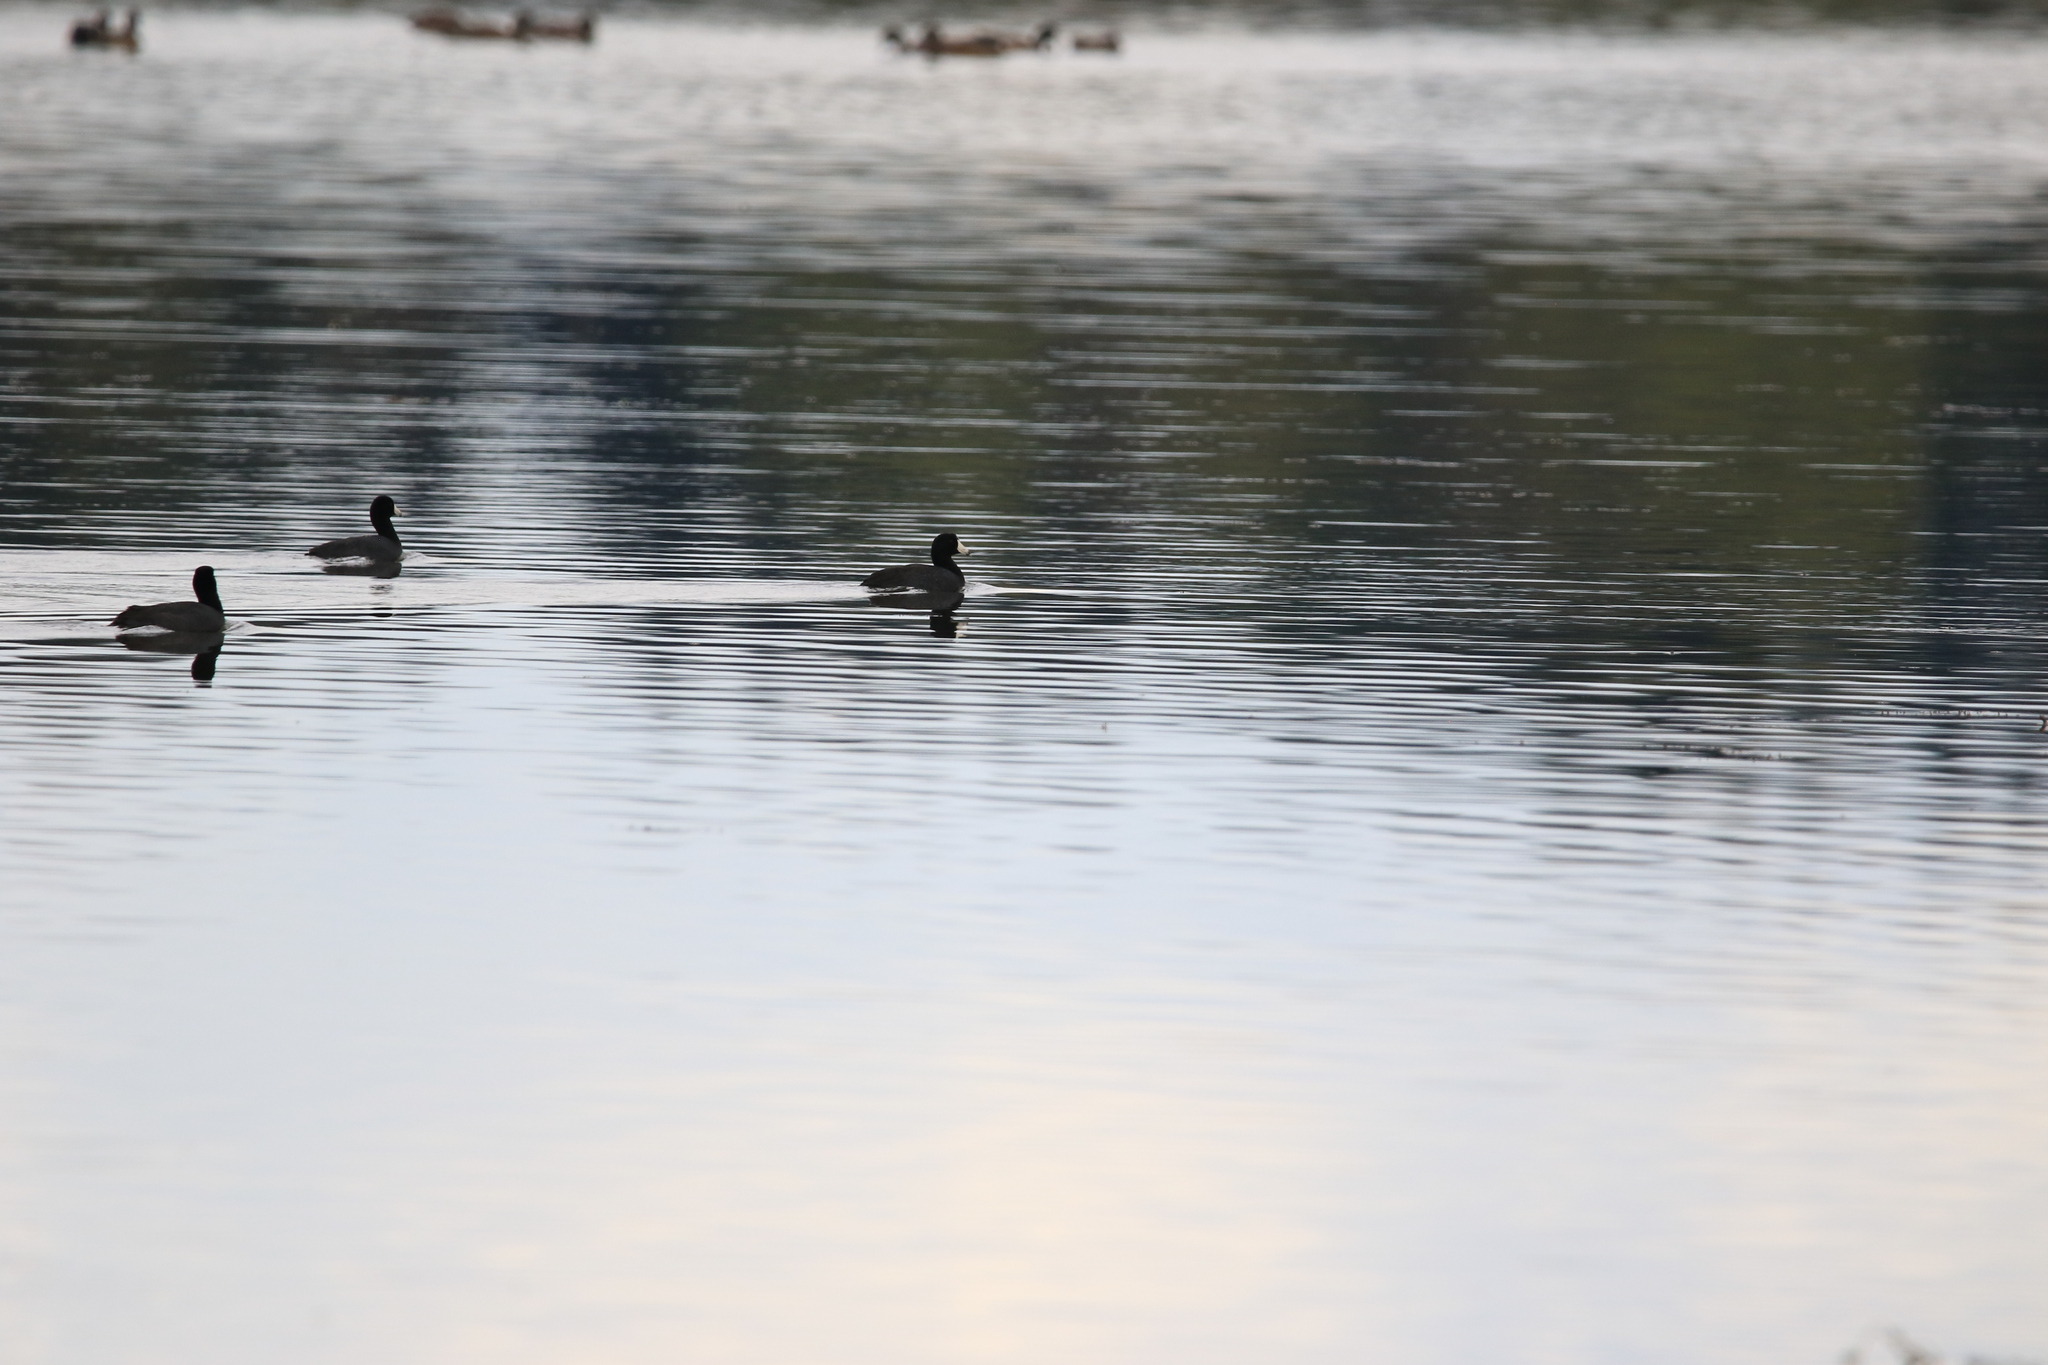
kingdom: Animalia
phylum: Chordata
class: Aves
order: Gruiformes
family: Rallidae
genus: Fulica
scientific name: Fulica americana
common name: American coot
